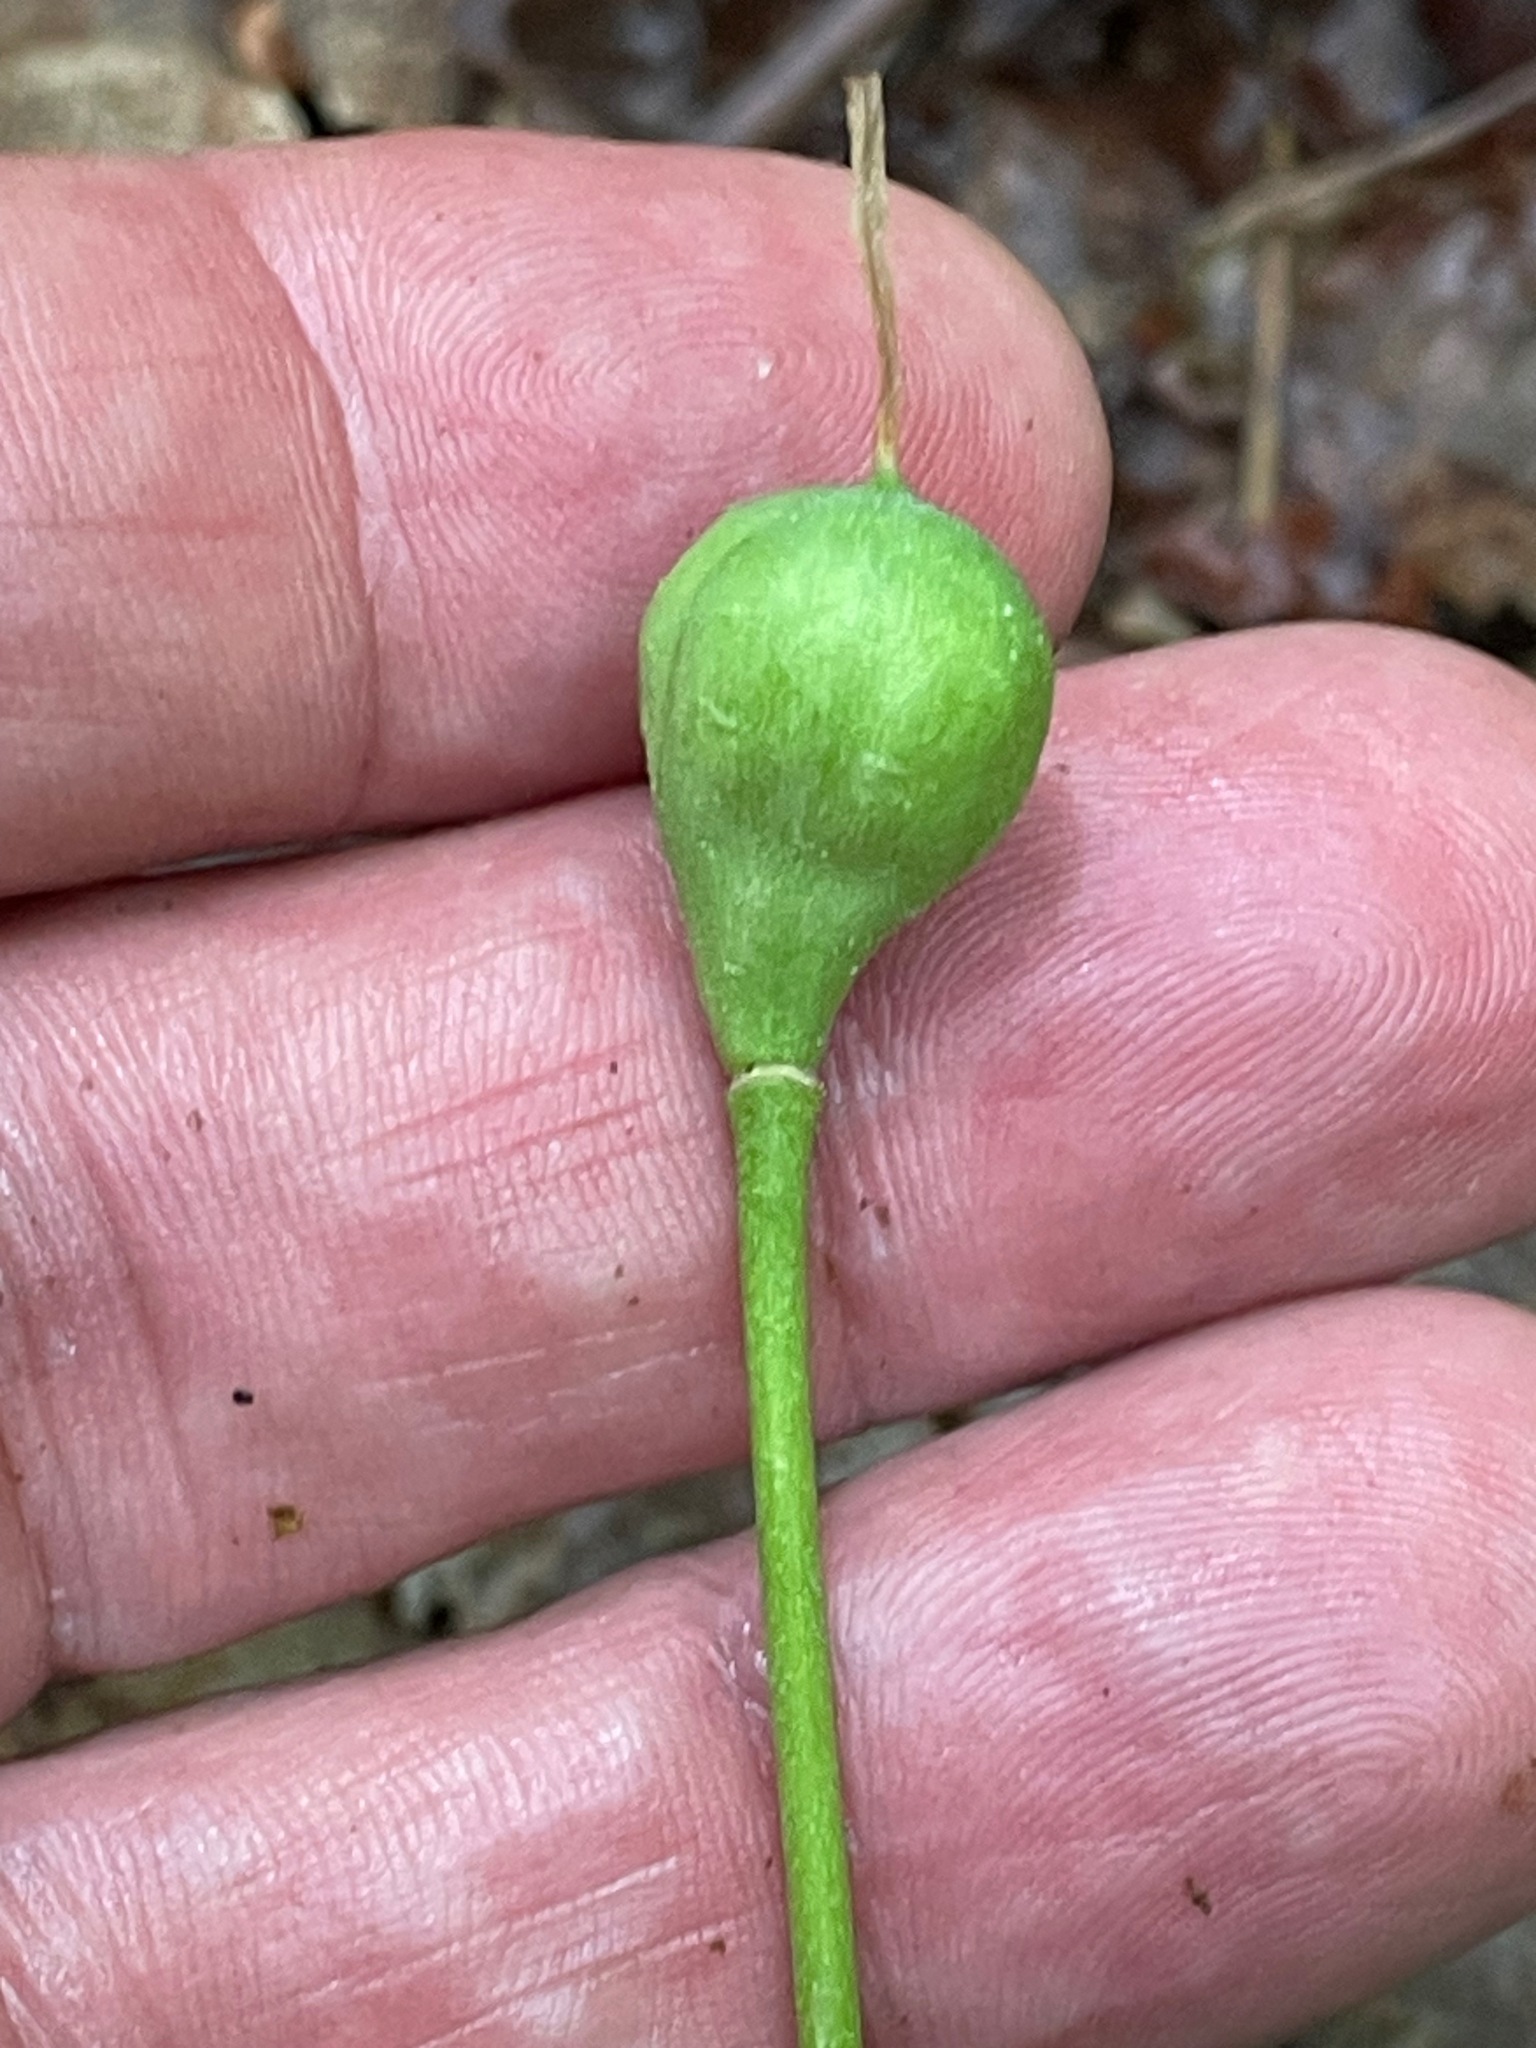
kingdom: Plantae
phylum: Tracheophyta
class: Liliopsida
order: Liliales
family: Liliaceae
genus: Erythronium
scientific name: Erythronium americanum
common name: Yellow adder's-tongue
